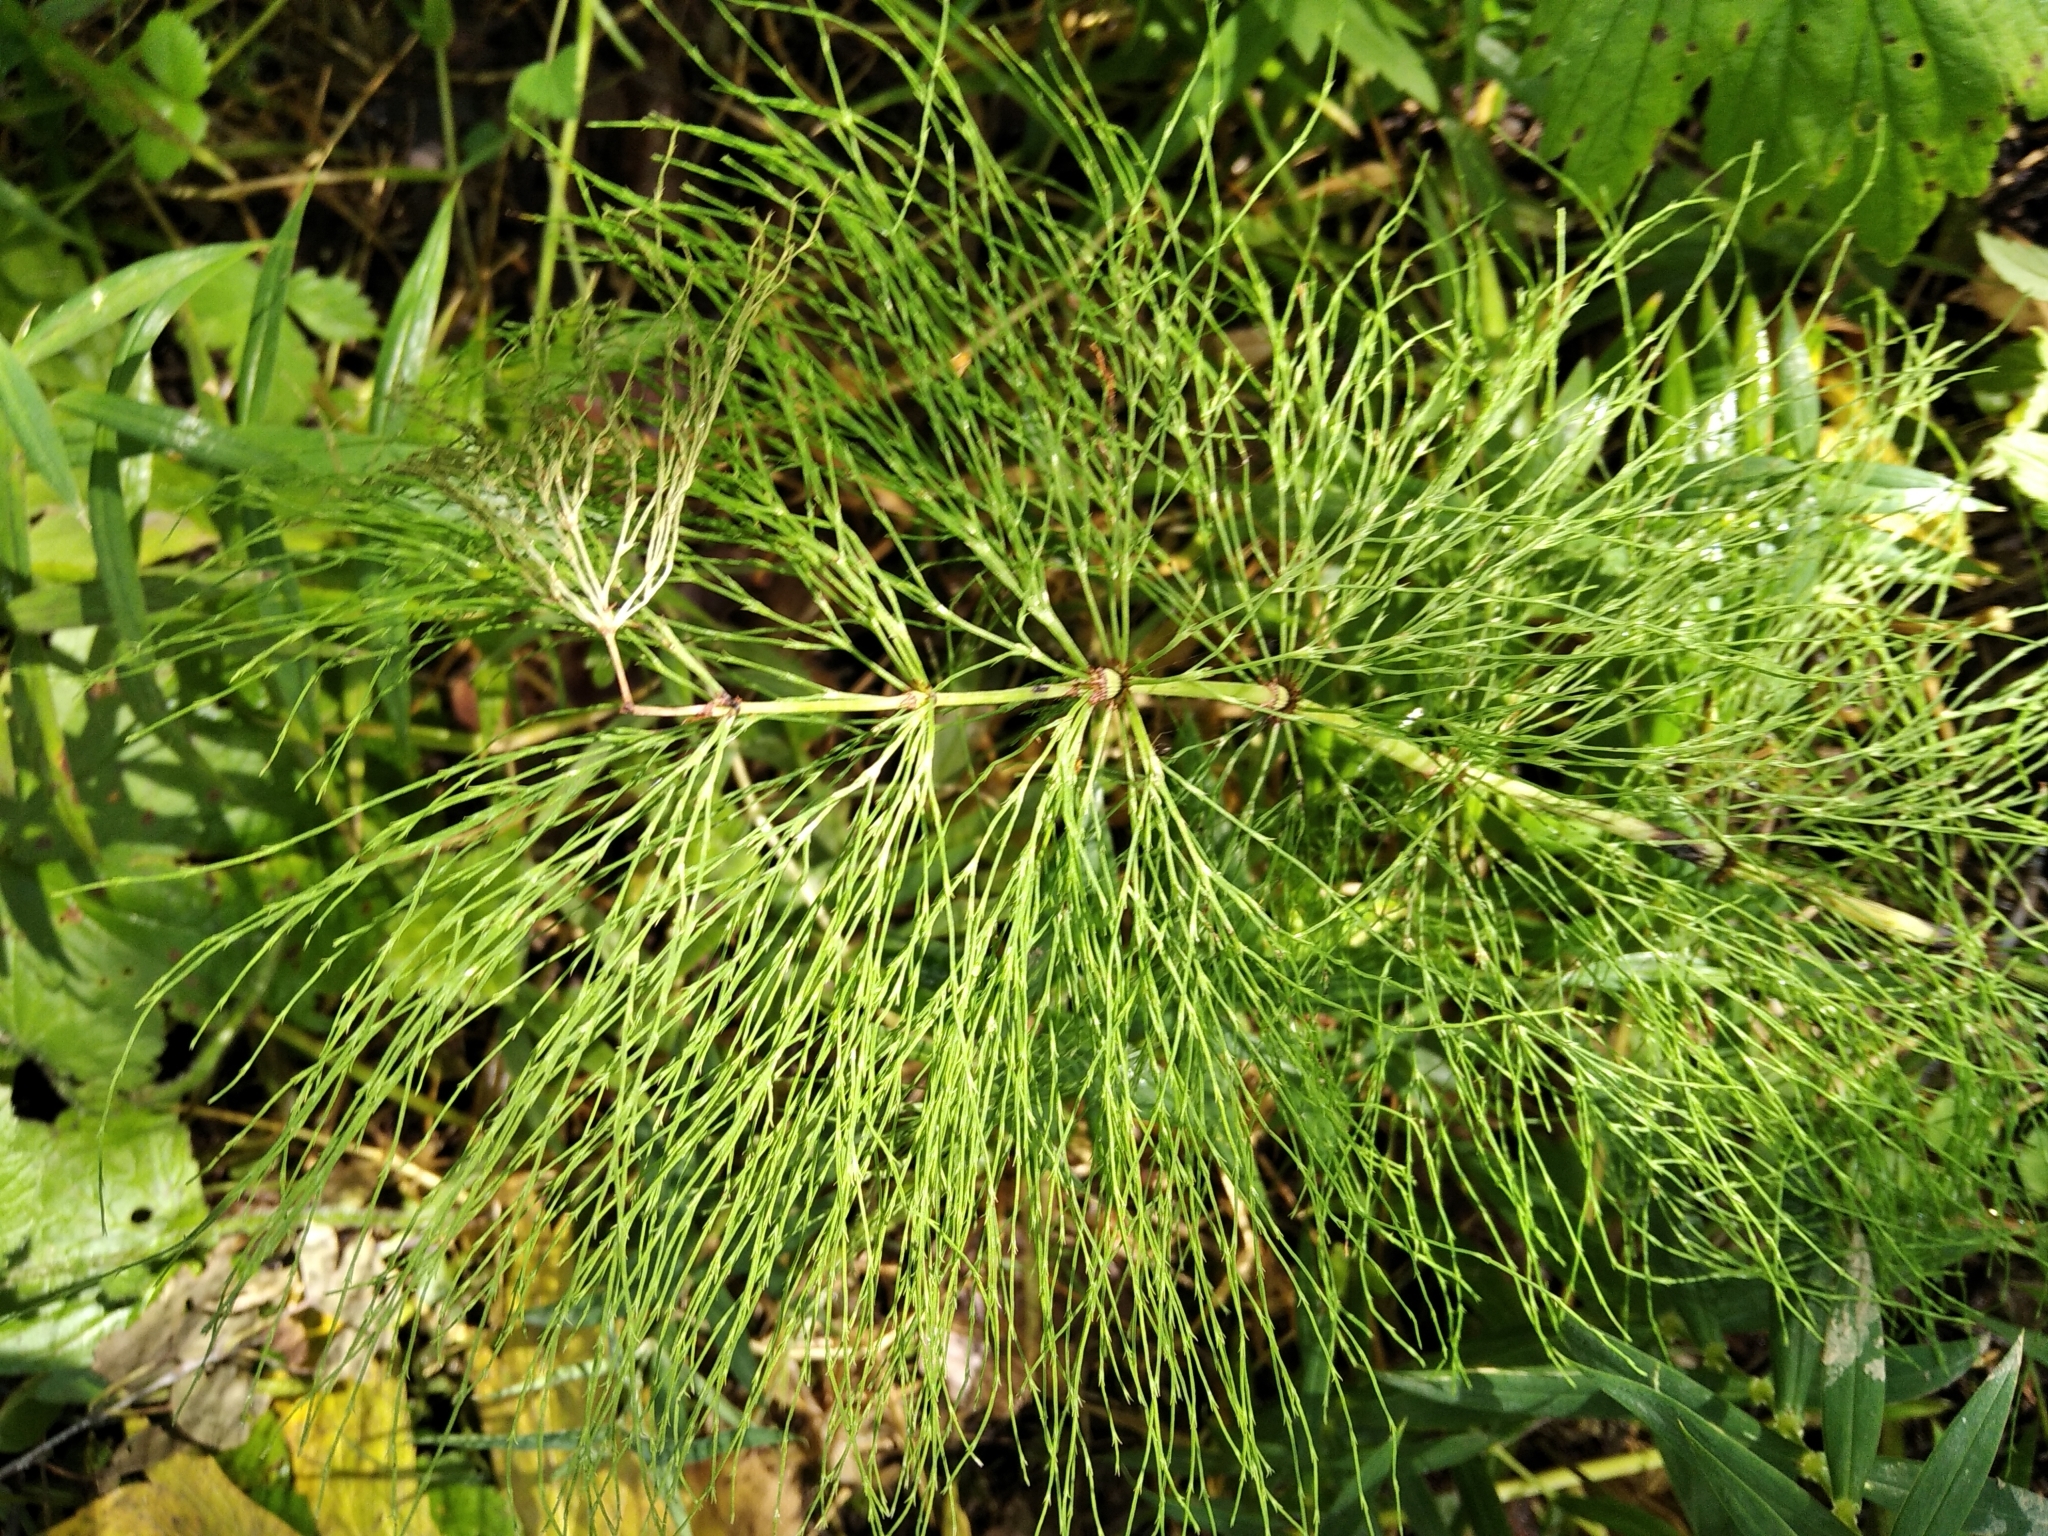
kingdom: Plantae
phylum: Tracheophyta
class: Polypodiopsida
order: Equisetales
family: Equisetaceae
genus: Equisetum
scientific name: Equisetum sylvaticum
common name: Wood horsetail
